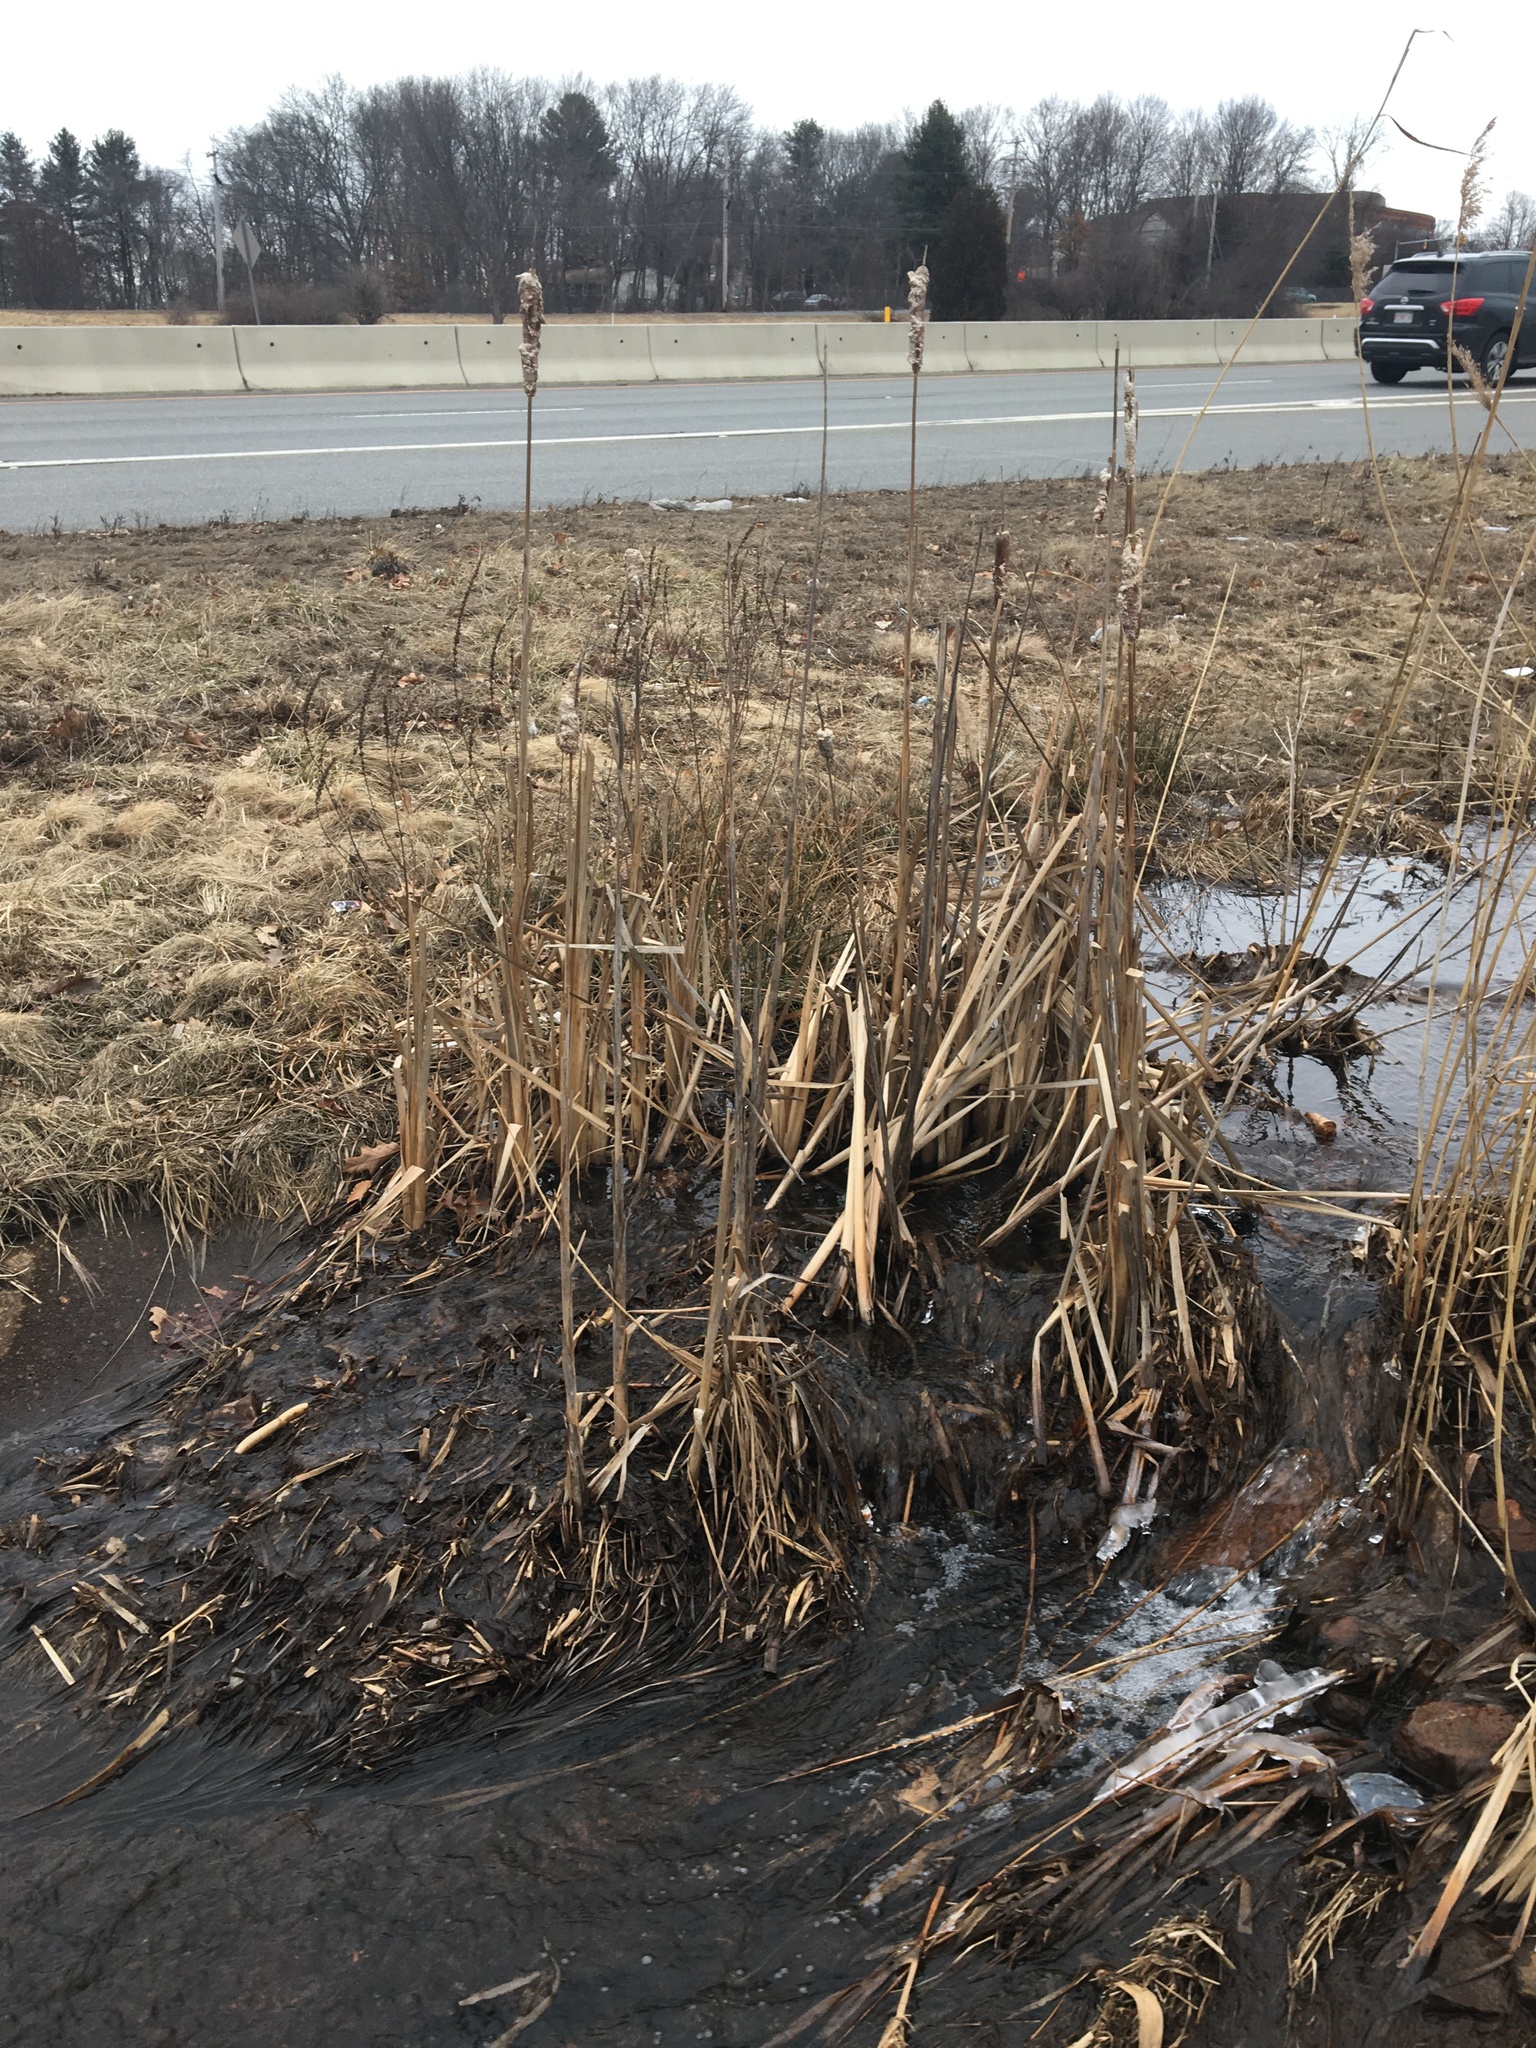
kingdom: Plantae
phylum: Tracheophyta
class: Liliopsida
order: Poales
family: Typhaceae
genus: Typha
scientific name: Typha latifolia
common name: Broadleaf cattail
